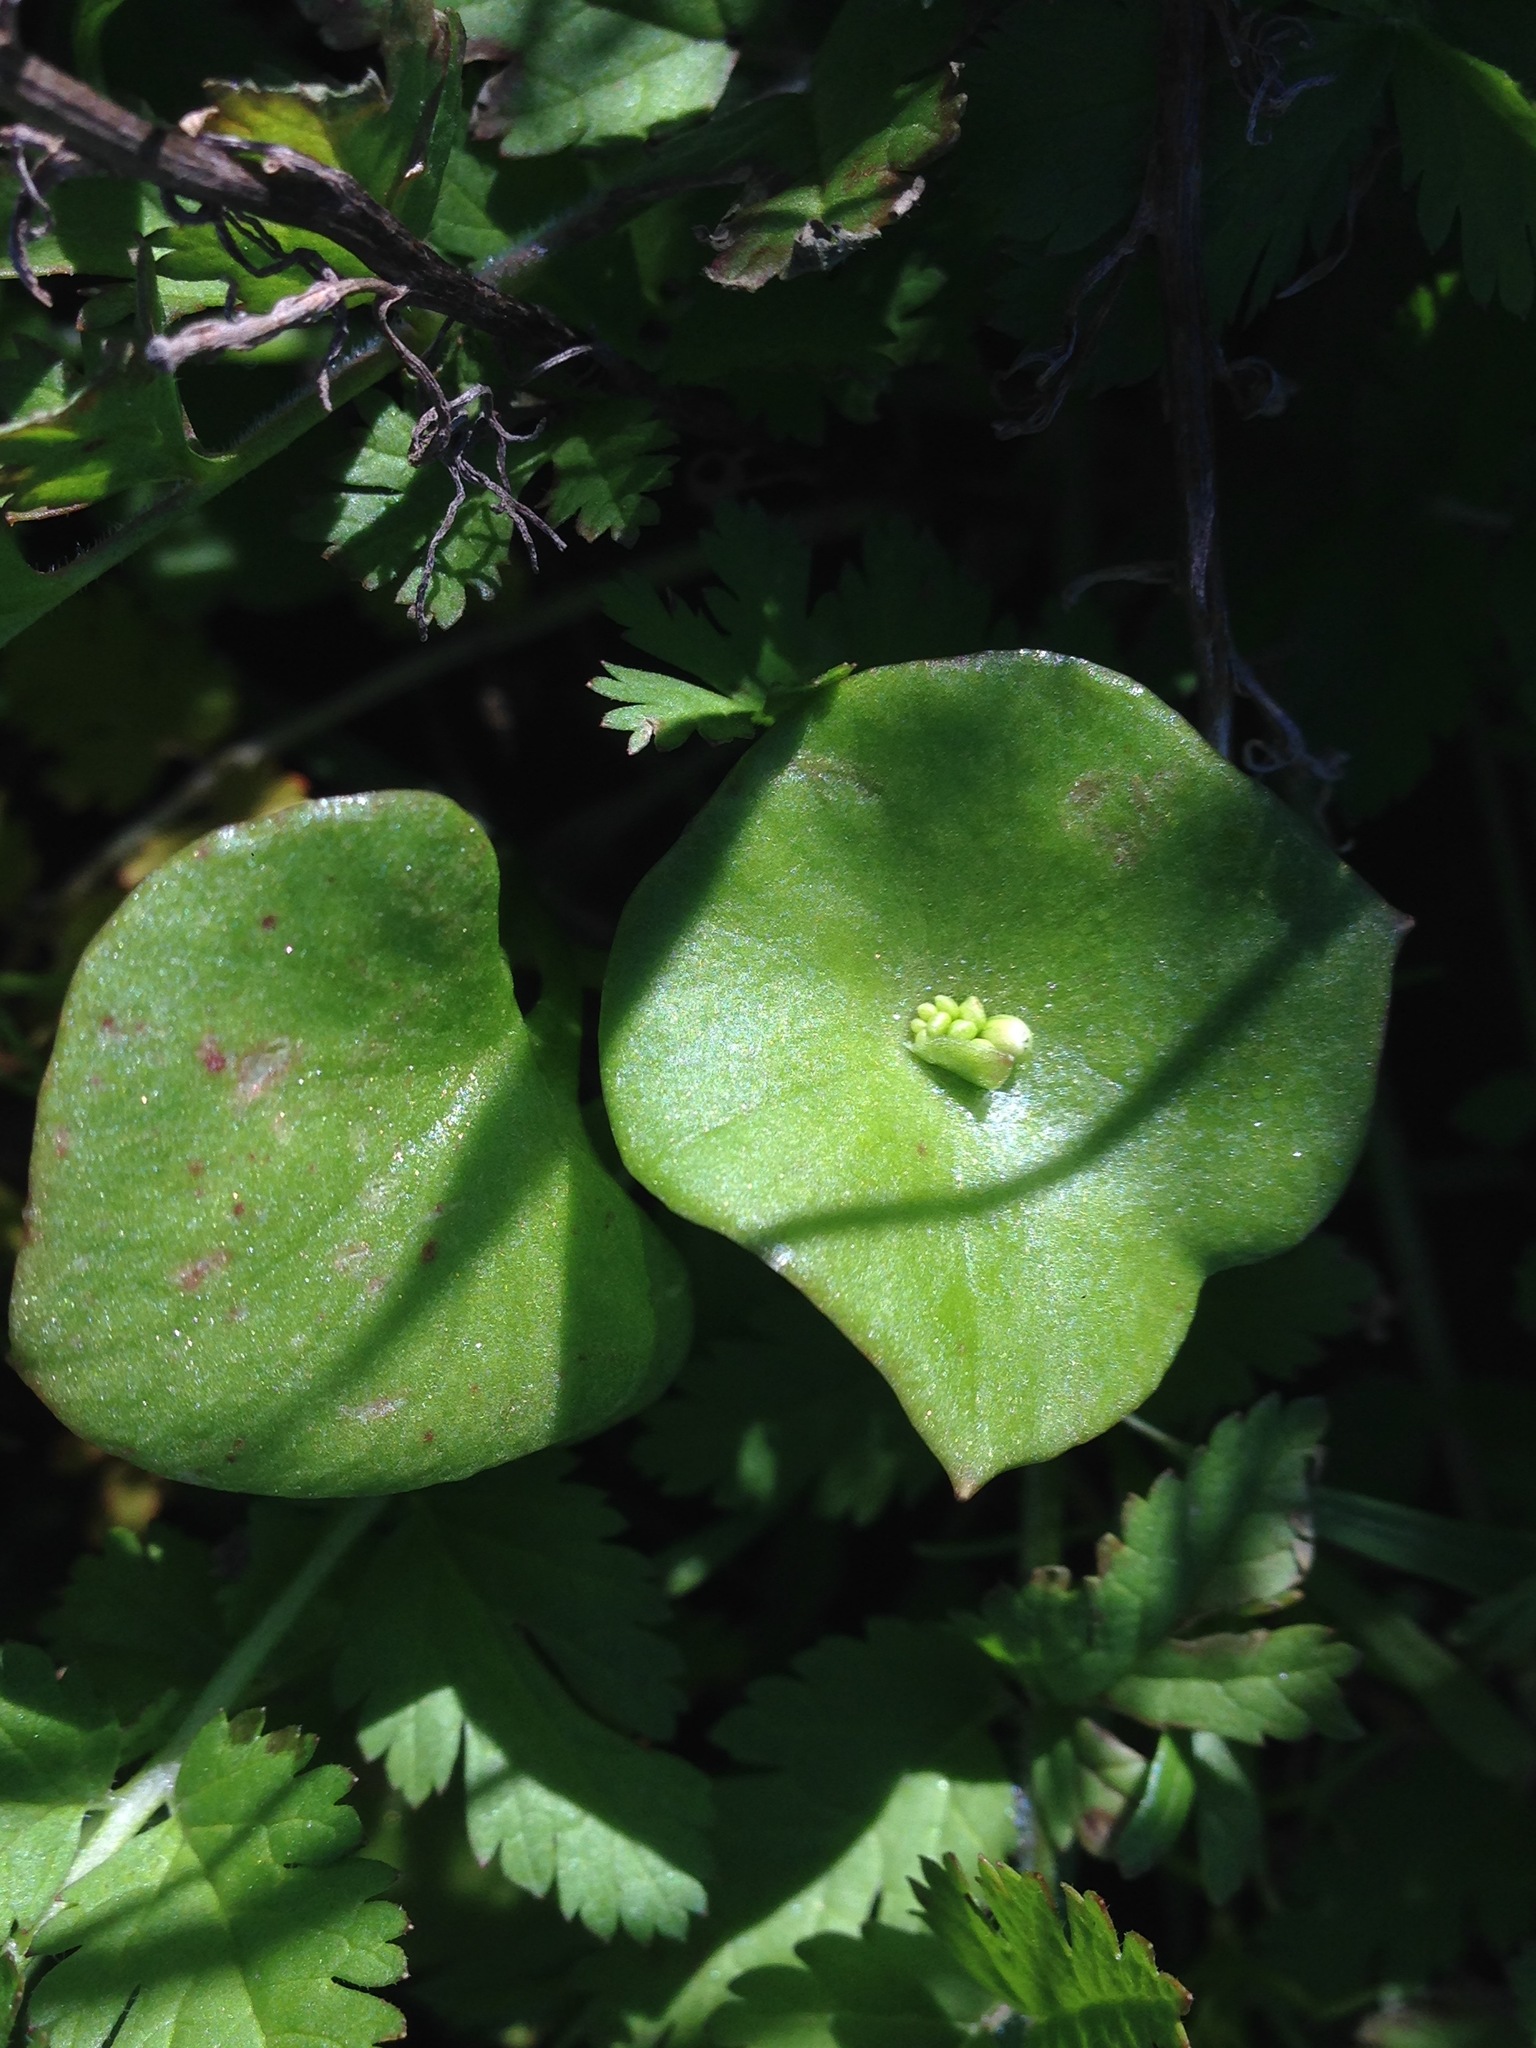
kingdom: Plantae
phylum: Tracheophyta
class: Magnoliopsida
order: Caryophyllales
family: Montiaceae
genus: Claytonia
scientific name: Claytonia perfoliata
